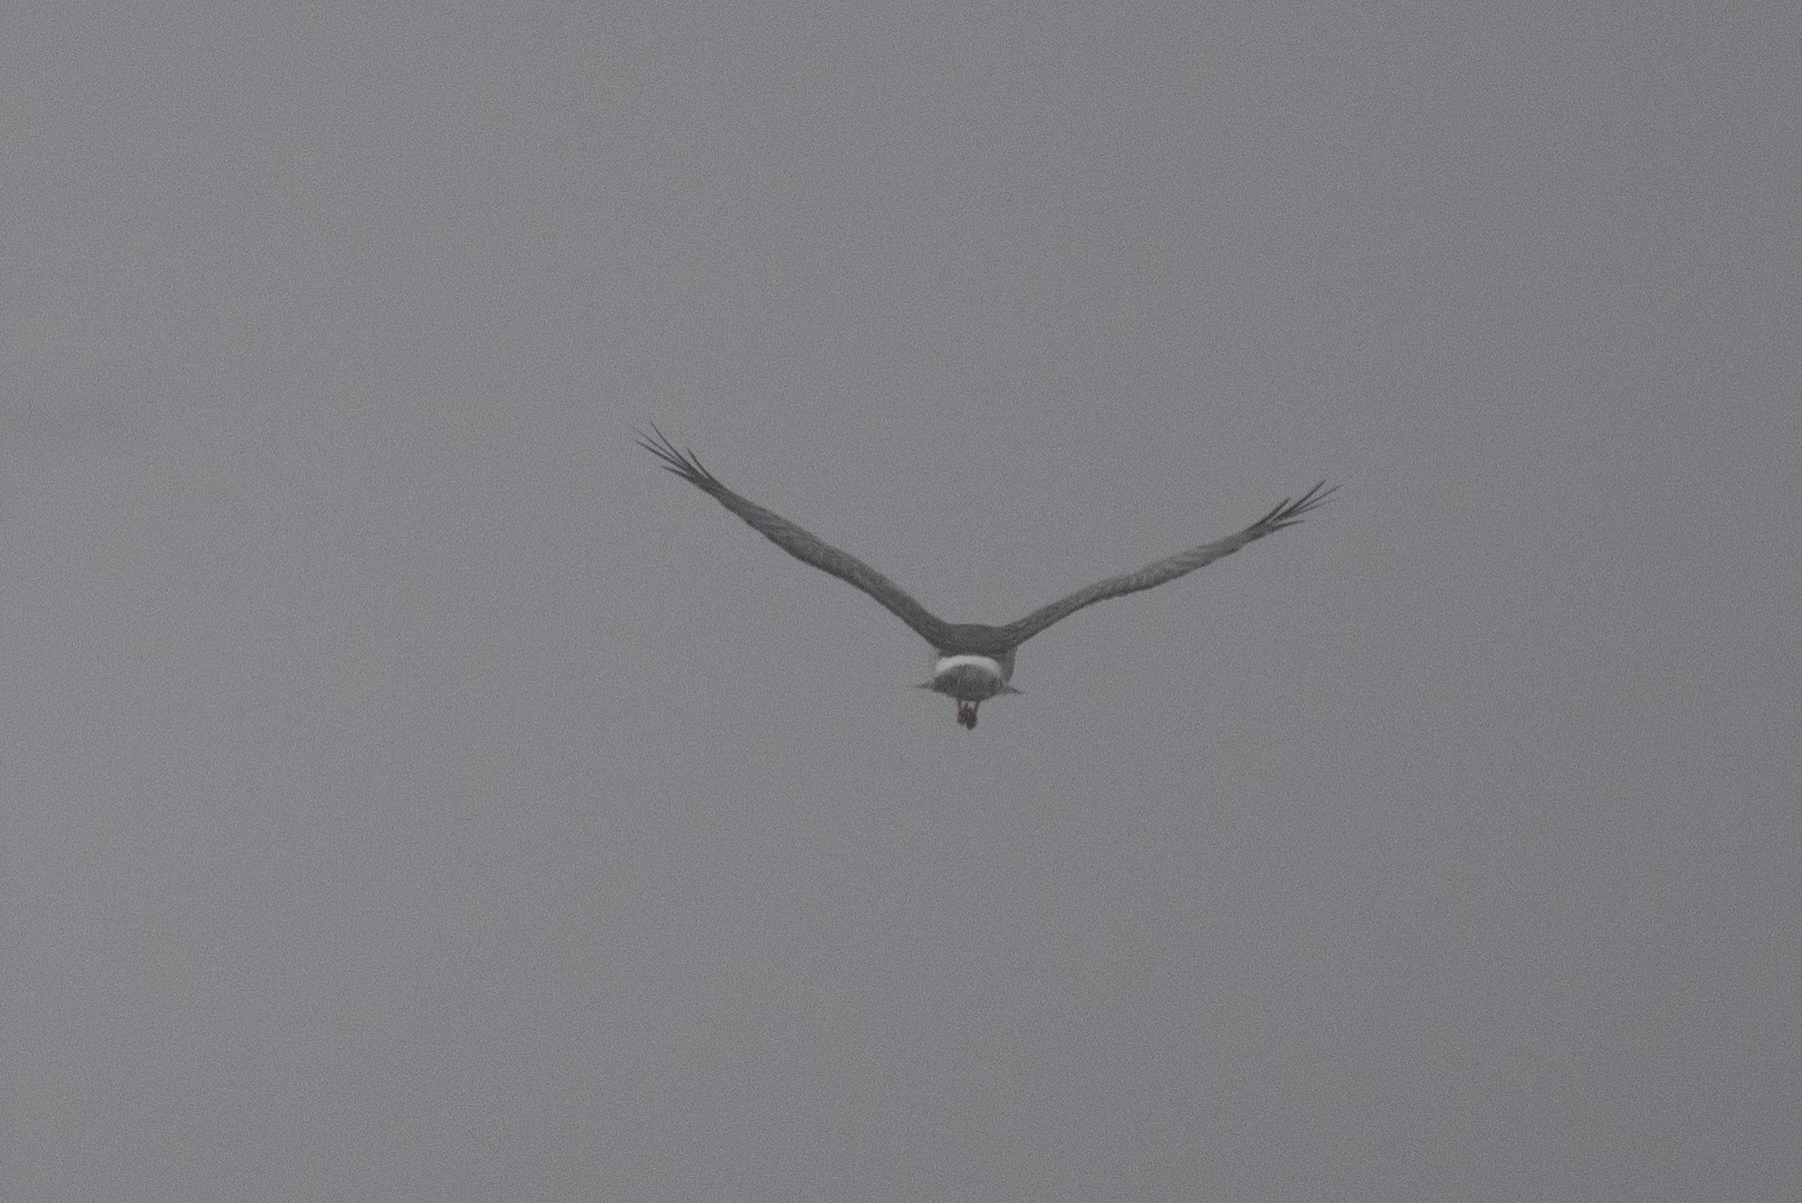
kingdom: Animalia
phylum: Chordata
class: Aves
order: Accipitriformes
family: Accipitridae
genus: Circus
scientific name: Circus cyaneus
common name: Hen harrier
